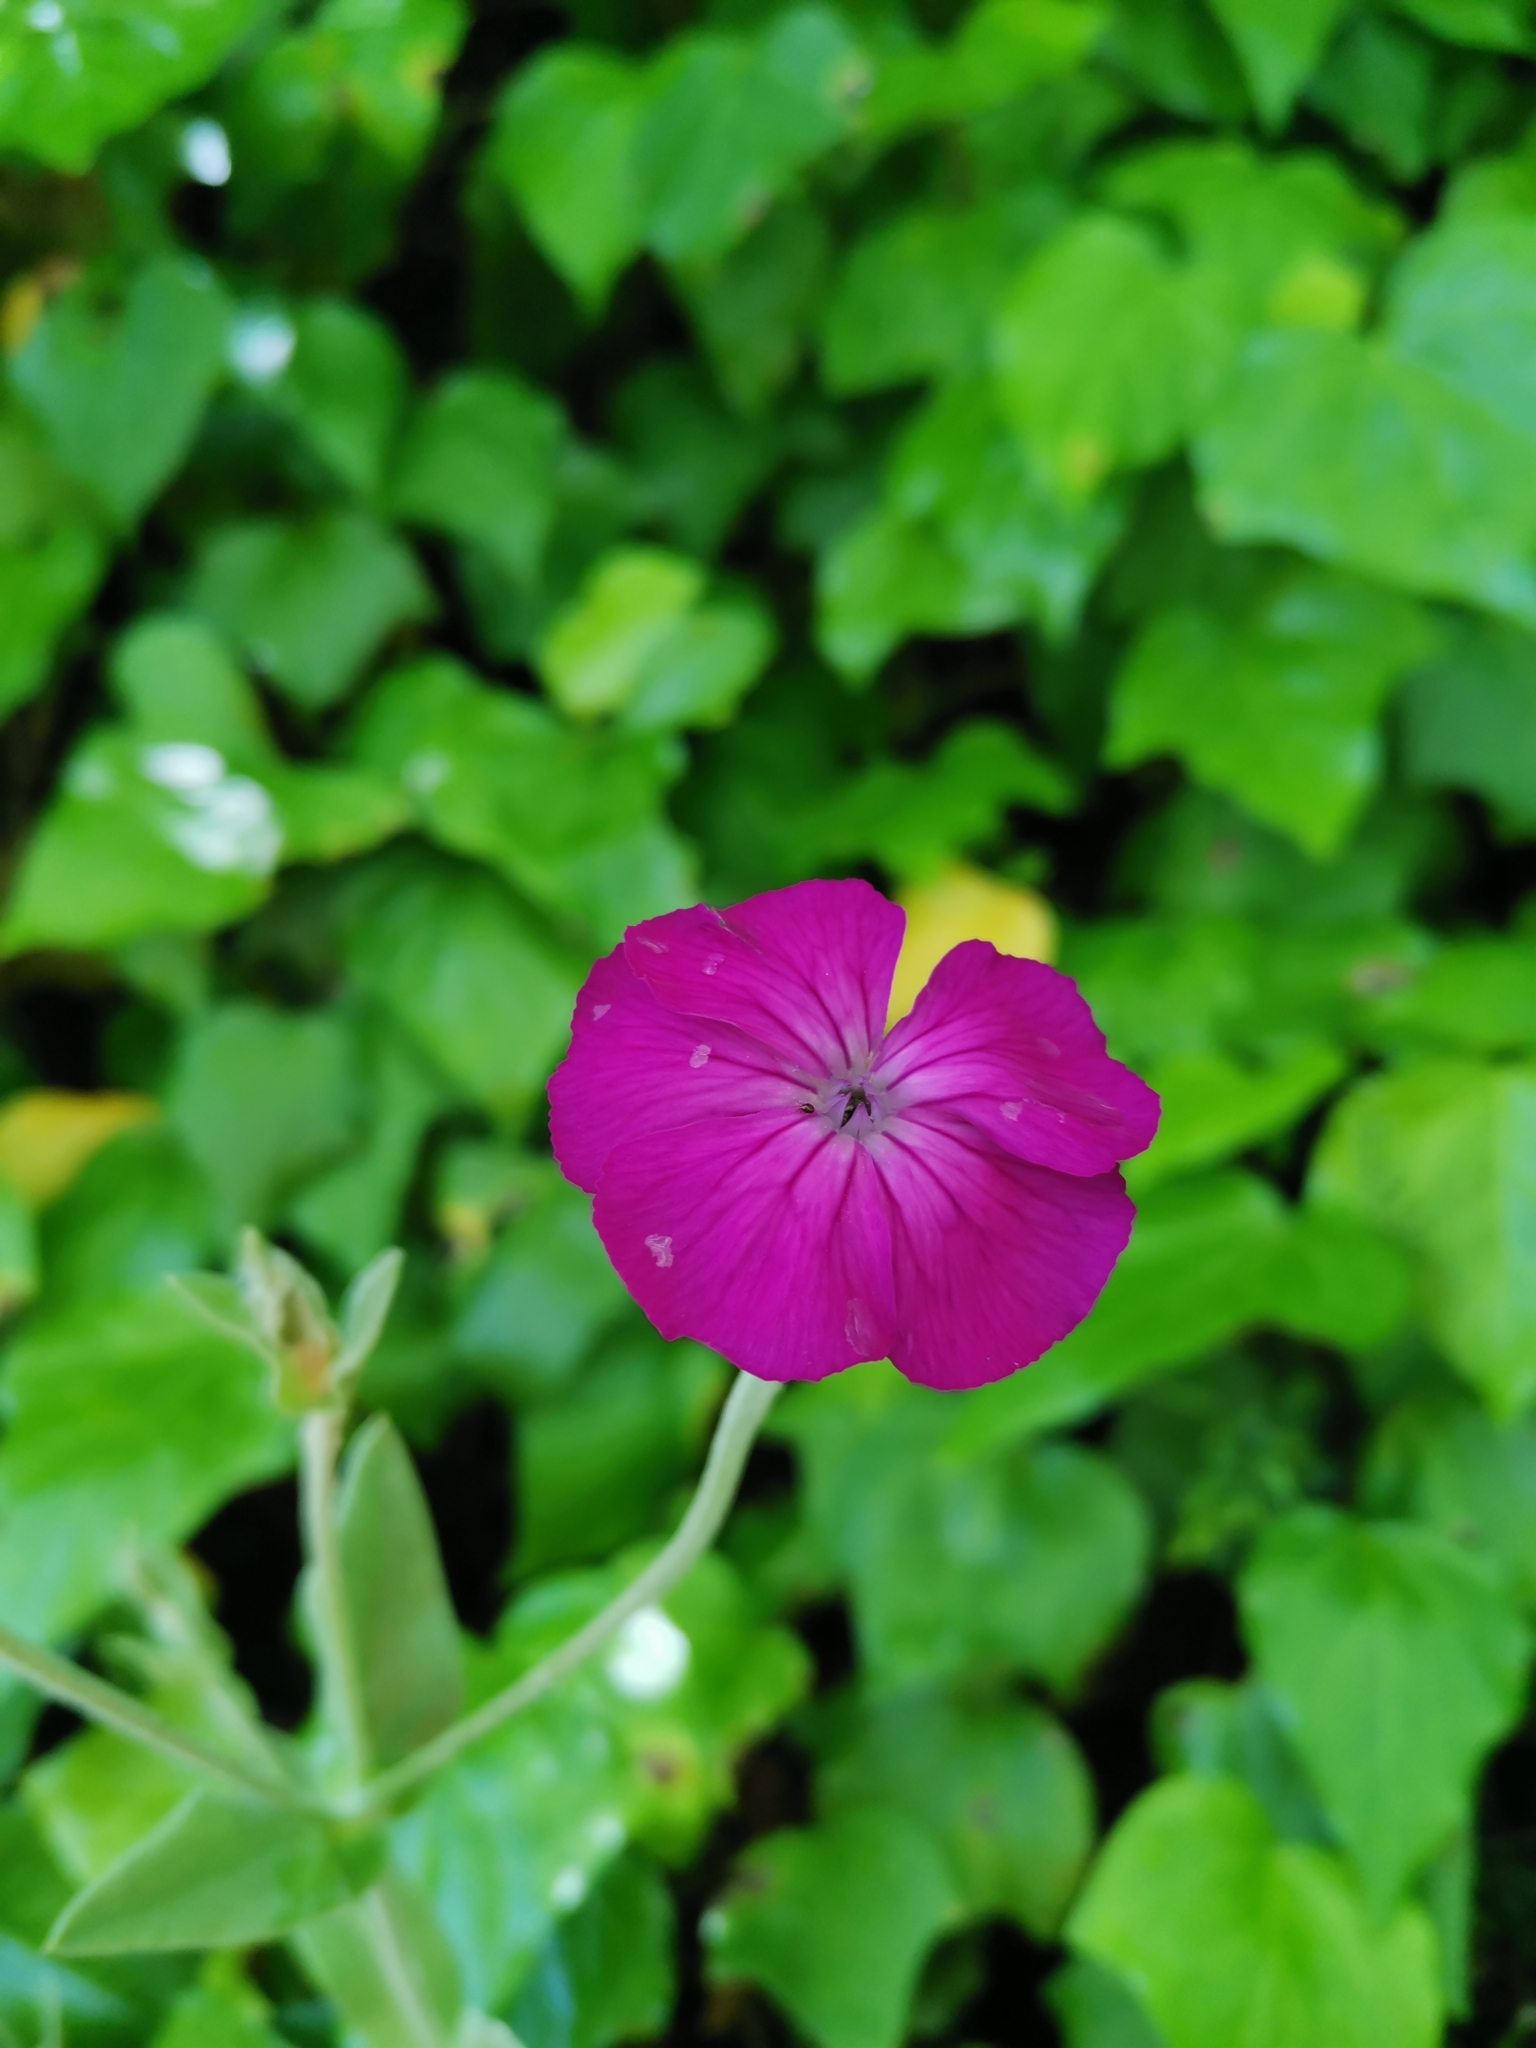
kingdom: Plantae
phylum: Tracheophyta
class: Magnoliopsida
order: Caryophyllales
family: Caryophyllaceae
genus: Silene
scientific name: Silene coronaria
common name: Rose campion
